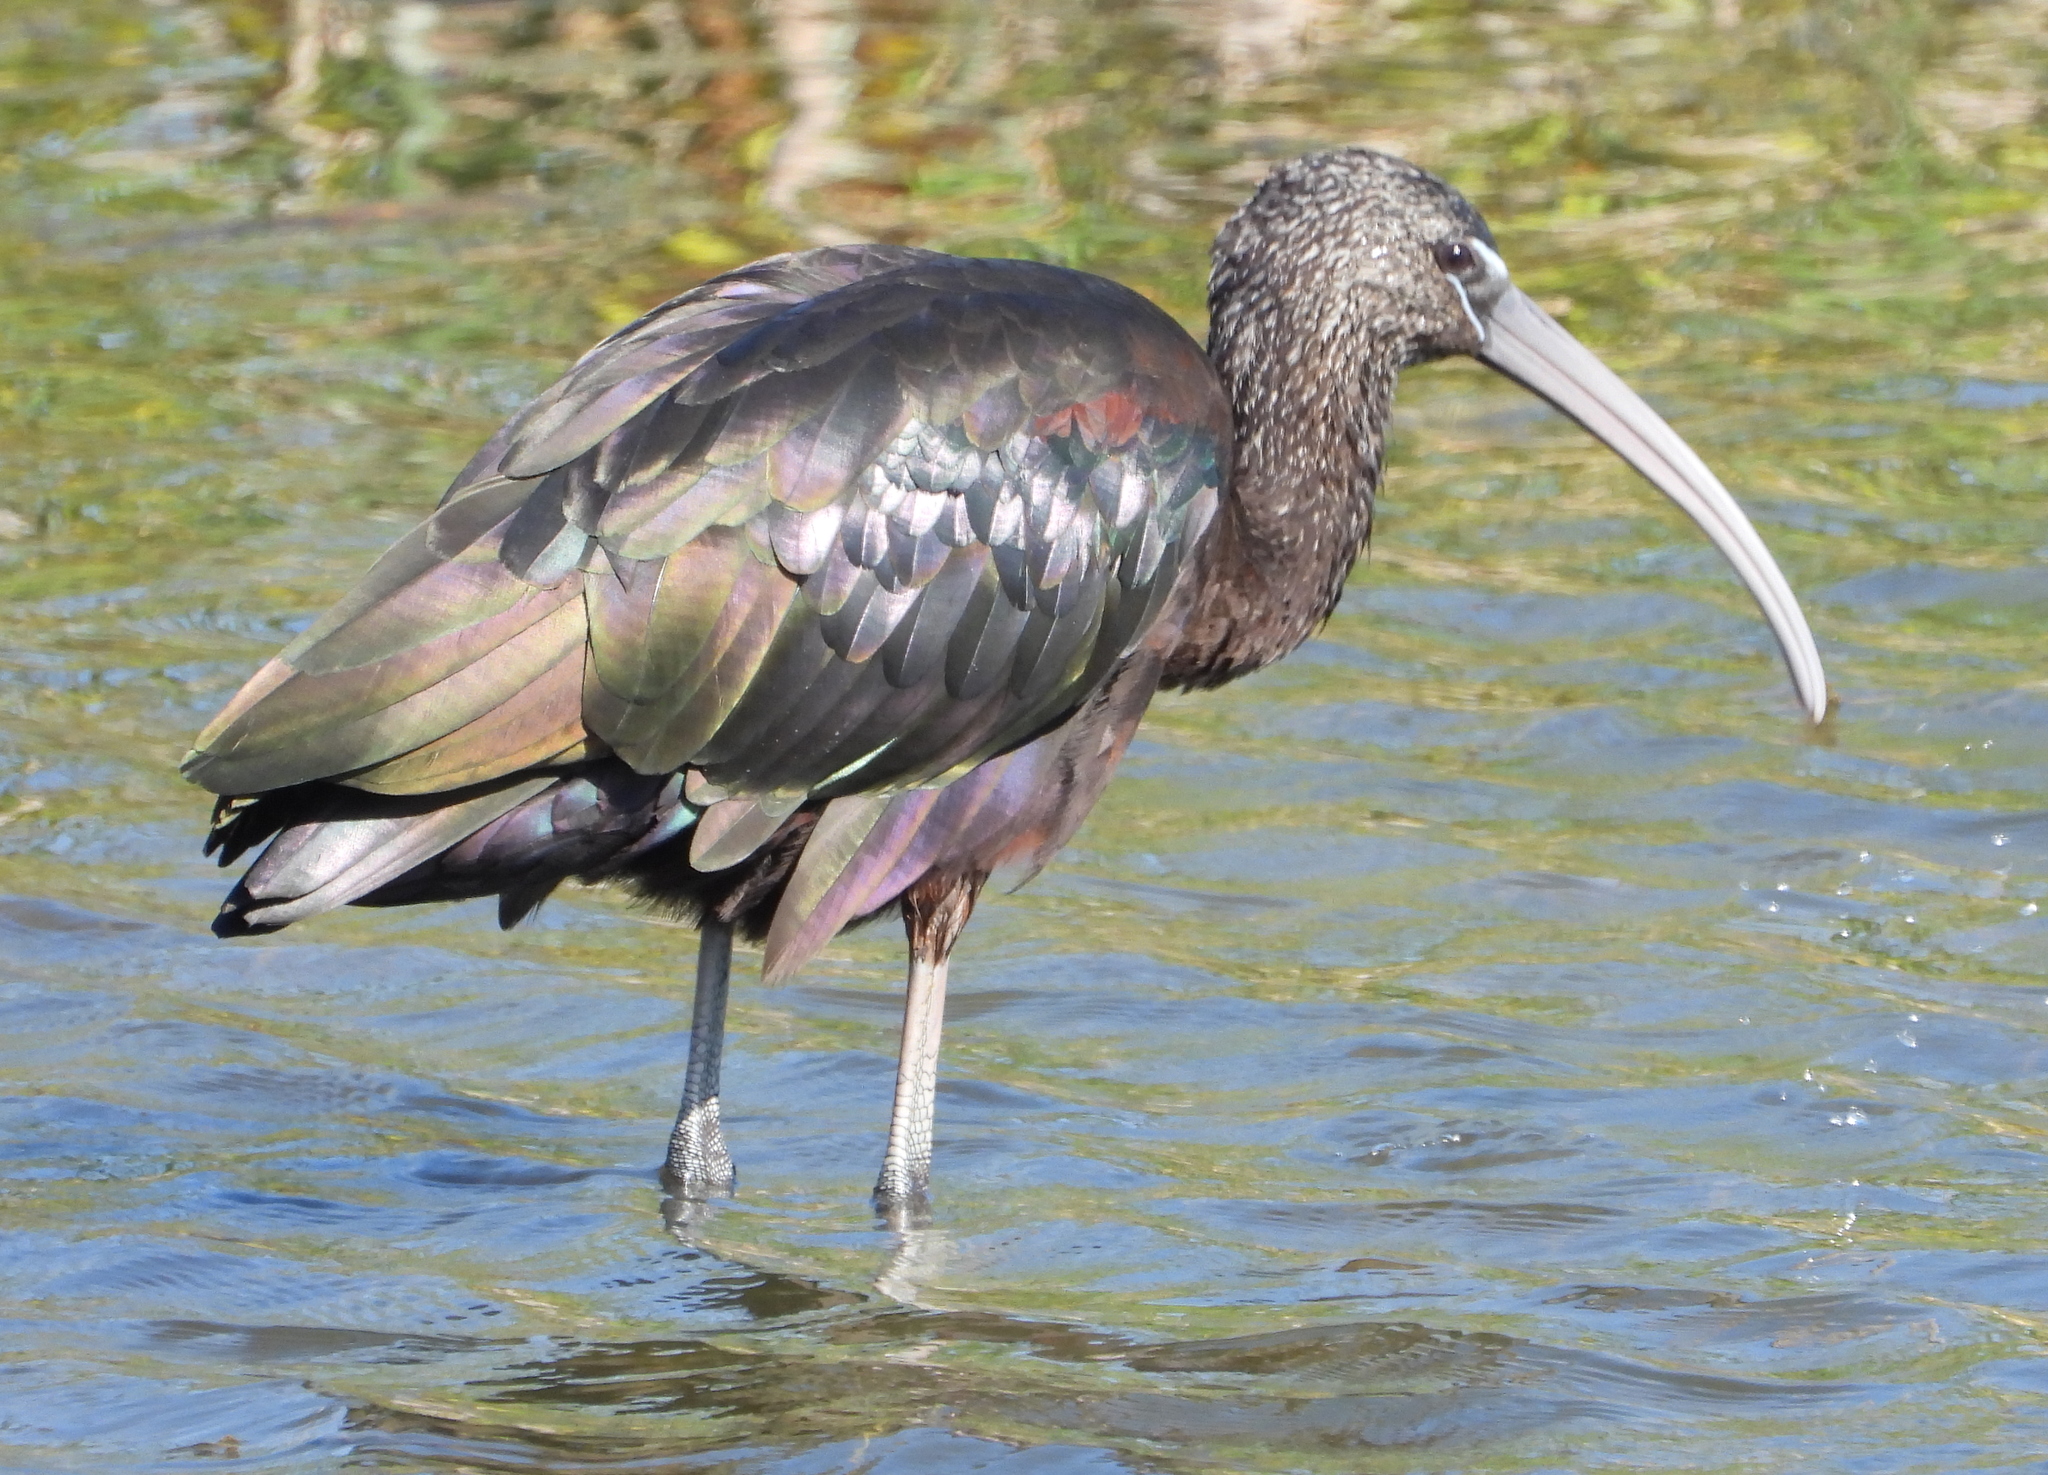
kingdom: Animalia
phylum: Chordata
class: Aves
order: Pelecaniformes
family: Threskiornithidae
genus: Plegadis
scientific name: Plegadis falcinellus
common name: Glossy ibis
